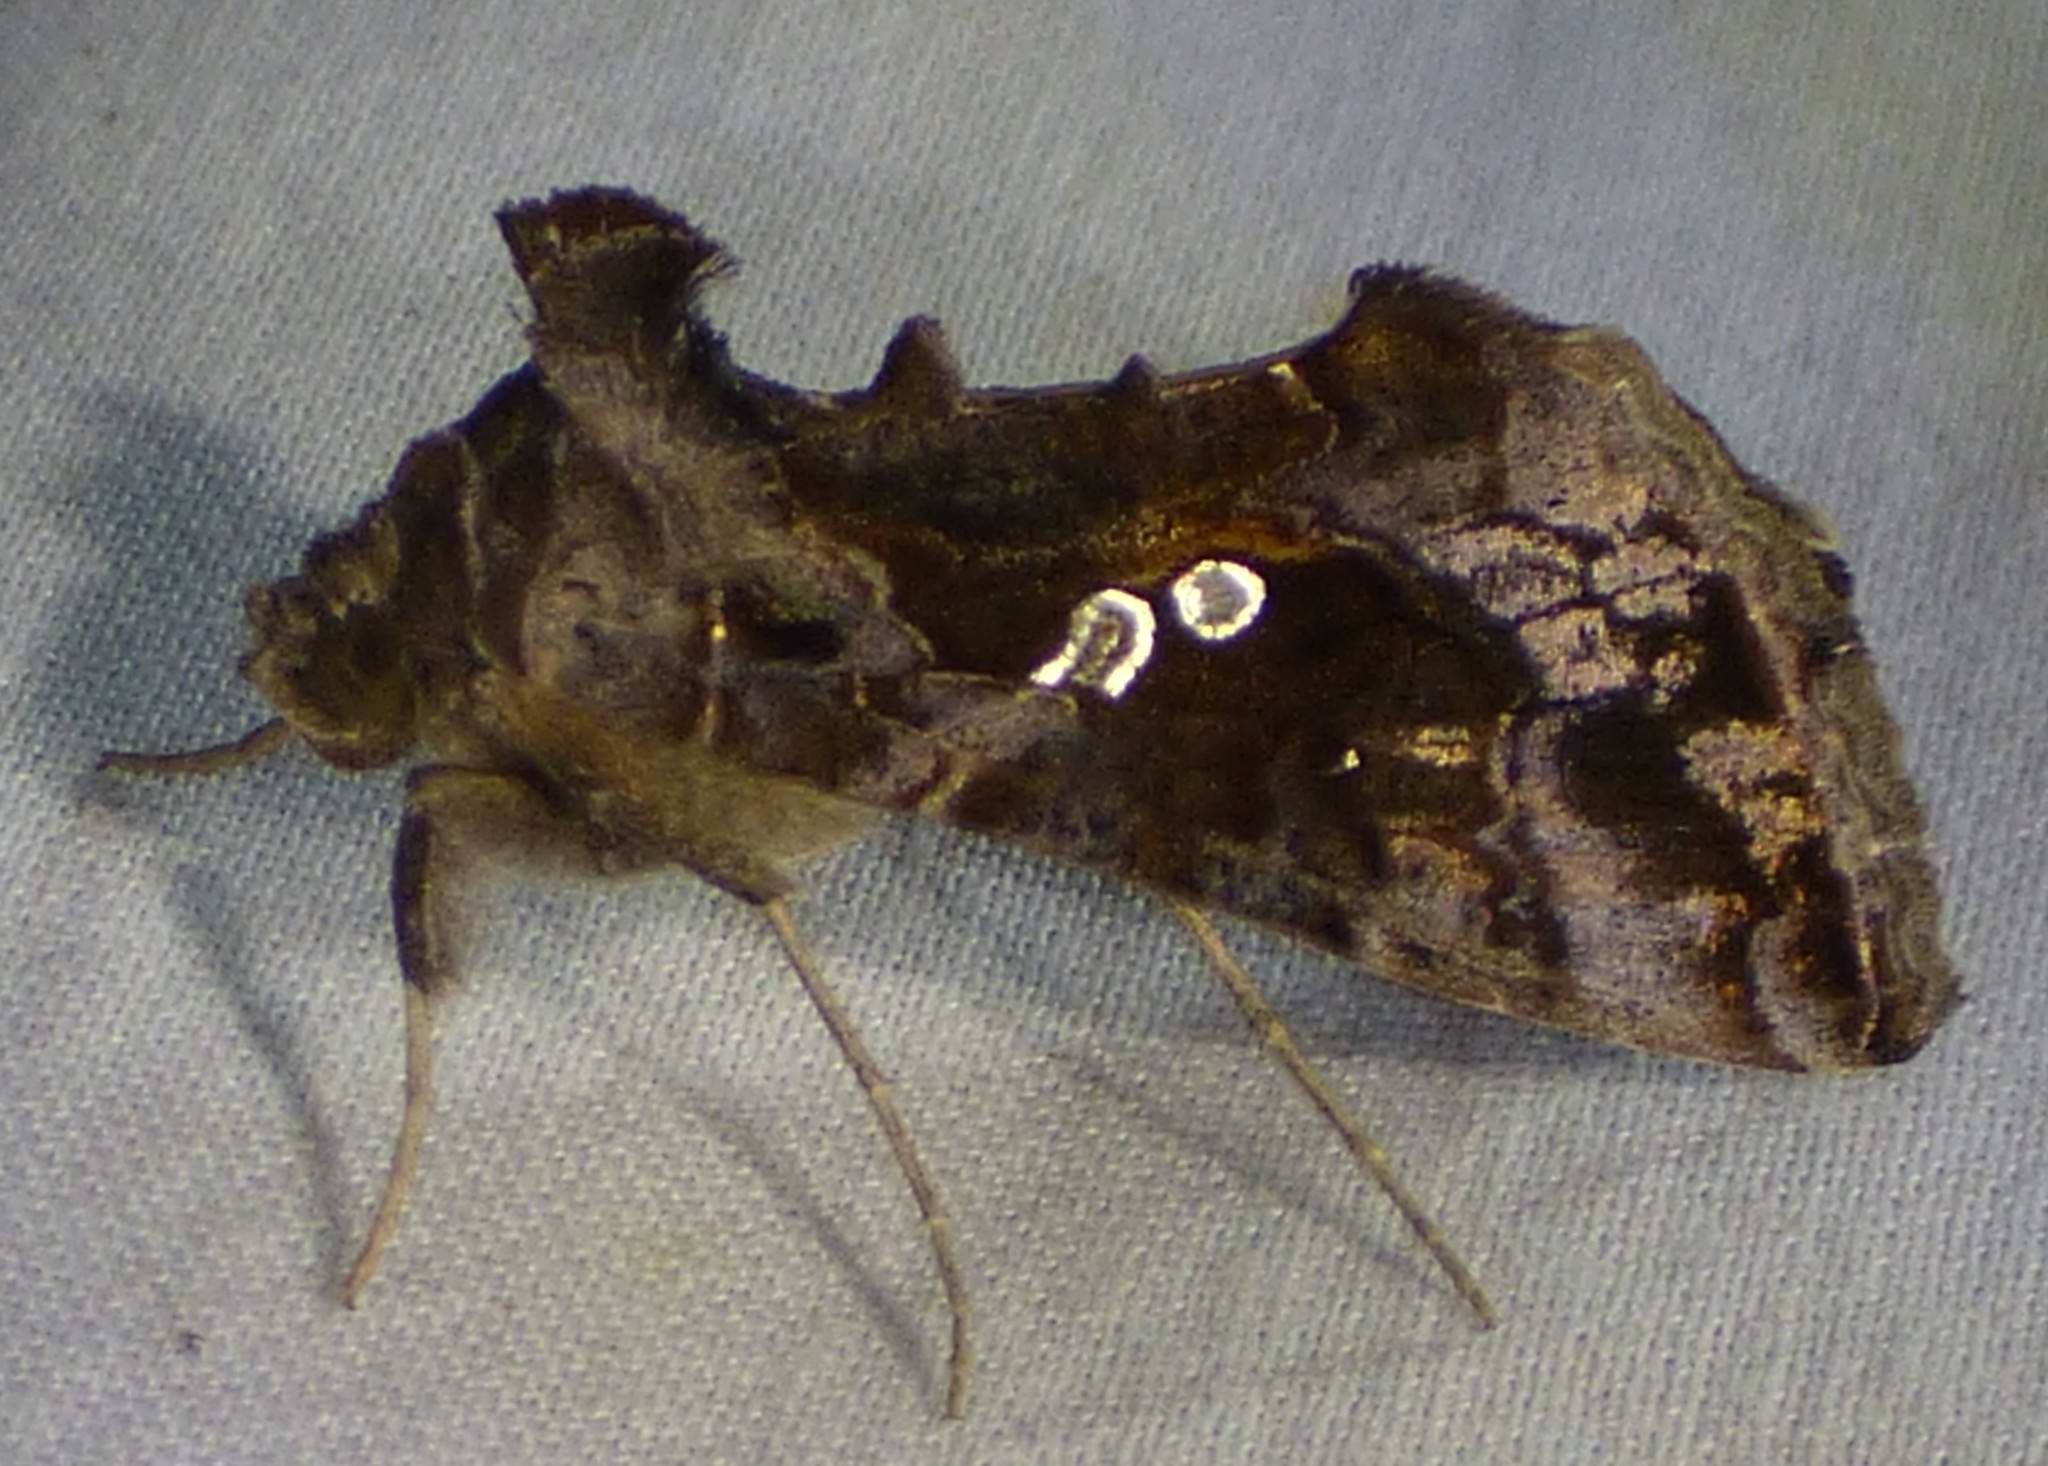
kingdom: Animalia
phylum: Arthropoda
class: Insecta
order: Lepidoptera
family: Noctuidae
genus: Chrysodeixis
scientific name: Chrysodeixis includens
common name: Cutworm moth
